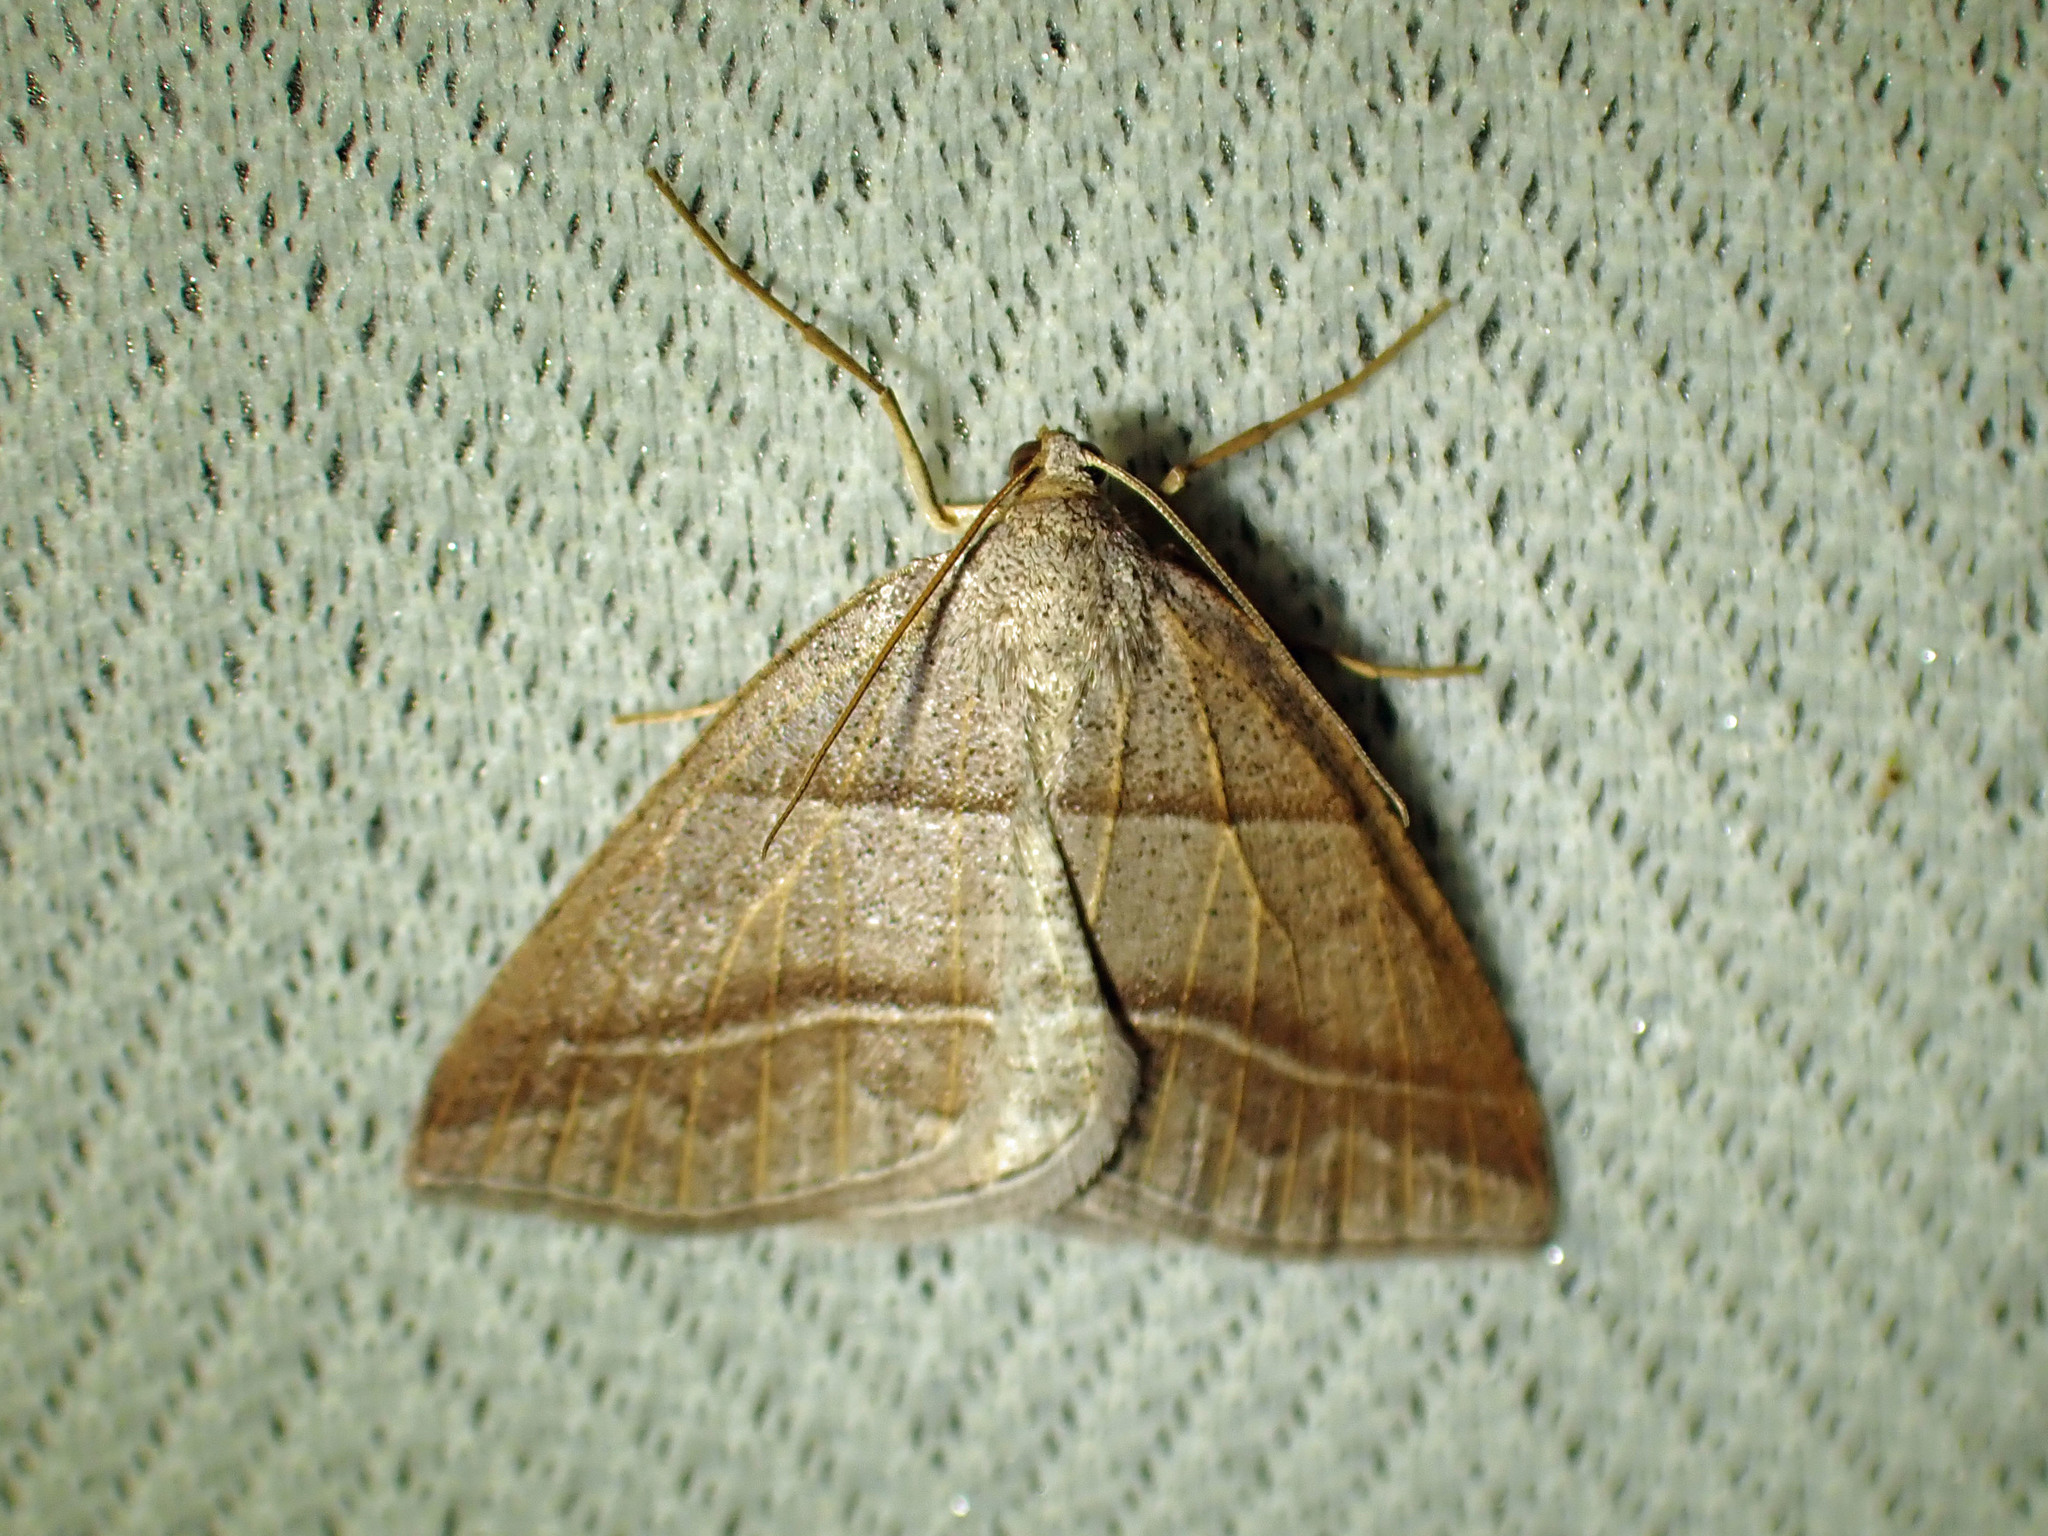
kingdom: Animalia
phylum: Arthropoda
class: Insecta
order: Lepidoptera
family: Pterophoridae
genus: Pterophorus
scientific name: Pterophorus Petrophora subaequaria
